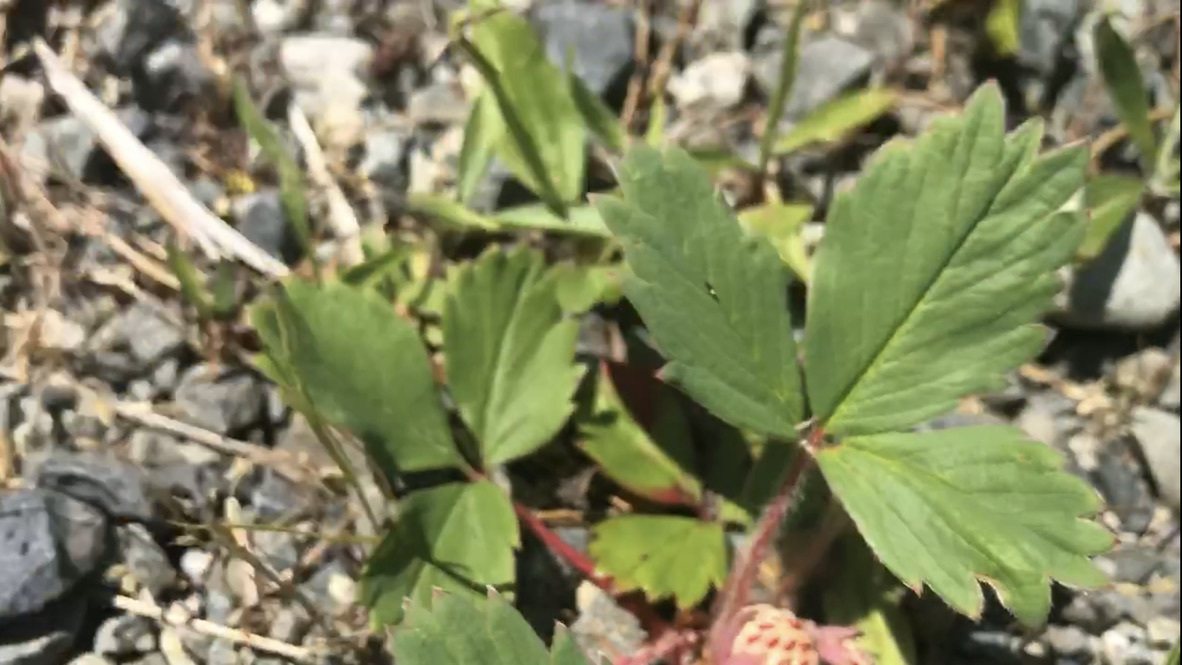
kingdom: Plantae
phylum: Tracheophyta
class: Magnoliopsida
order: Rosales
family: Rosaceae
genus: Fragaria
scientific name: Fragaria virginiana
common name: Thickleaved wild strawberry
